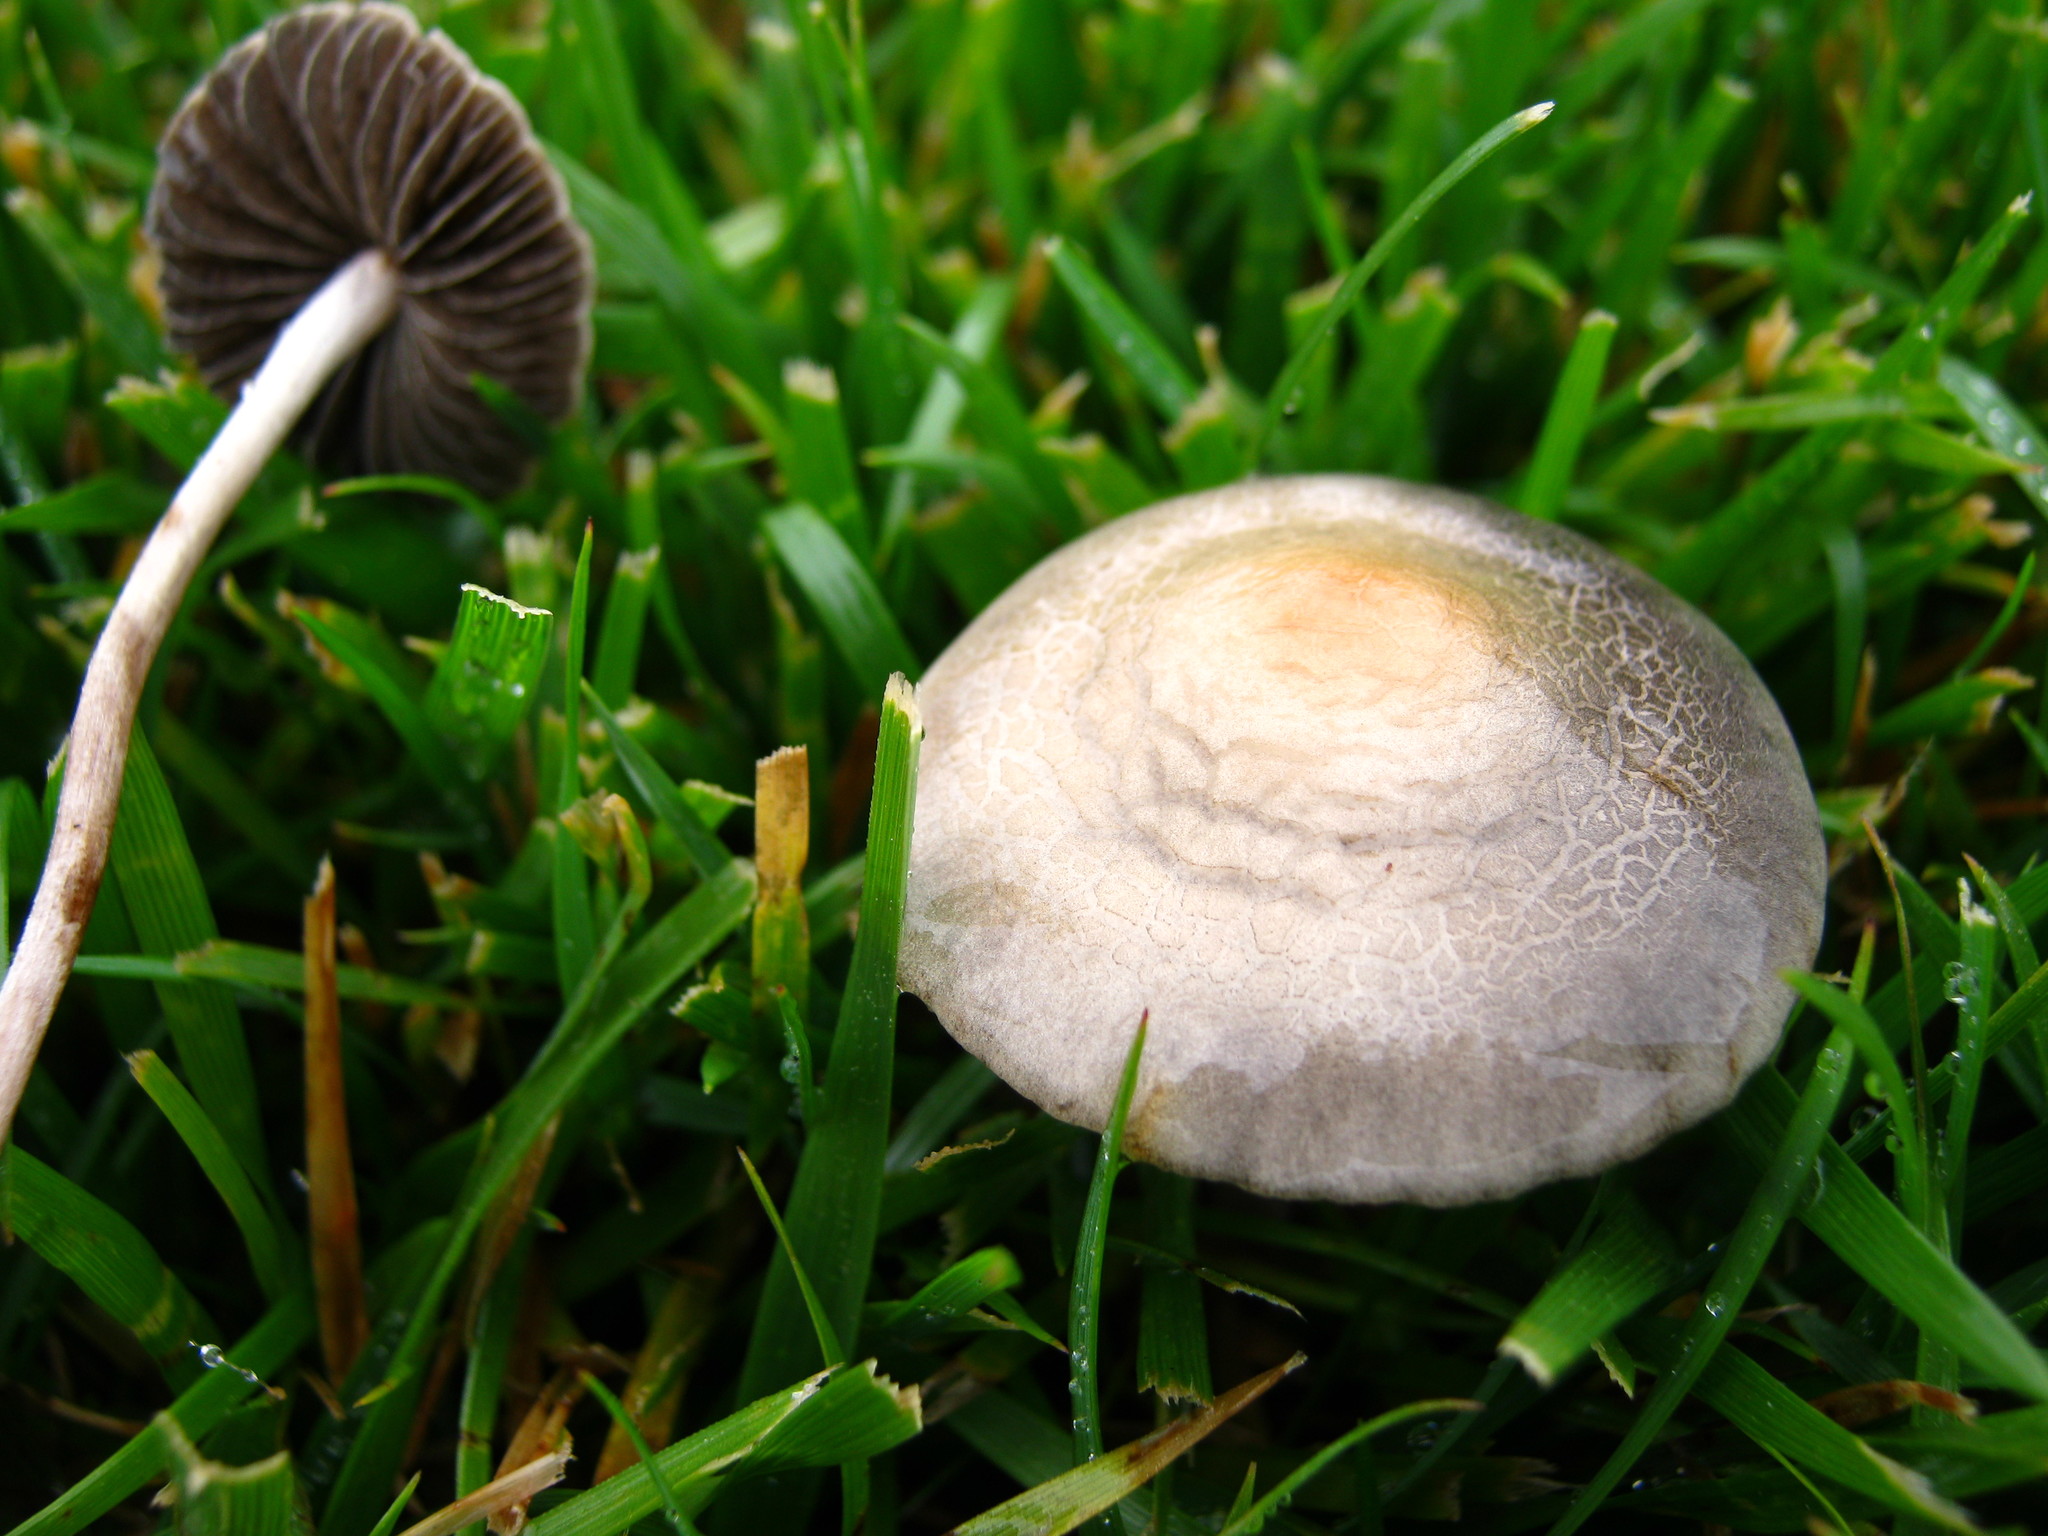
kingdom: Fungi
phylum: Basidiomycota
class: Agaricomycetes
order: Agaricales
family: Bolbitiaceae
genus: Panaeolus
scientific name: Panaeolus subbalteatus
